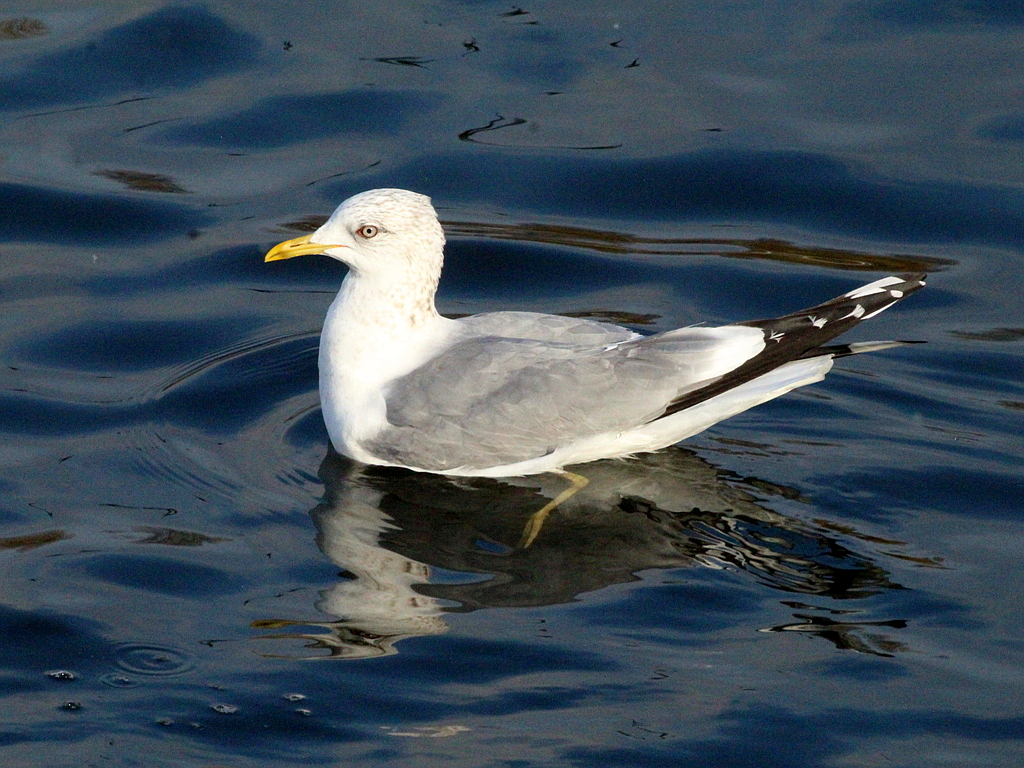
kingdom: Animalia
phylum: Chordata
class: Aves
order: Charadriiformes
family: Laridae
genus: Larus
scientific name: Larus canus
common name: Mew gull
